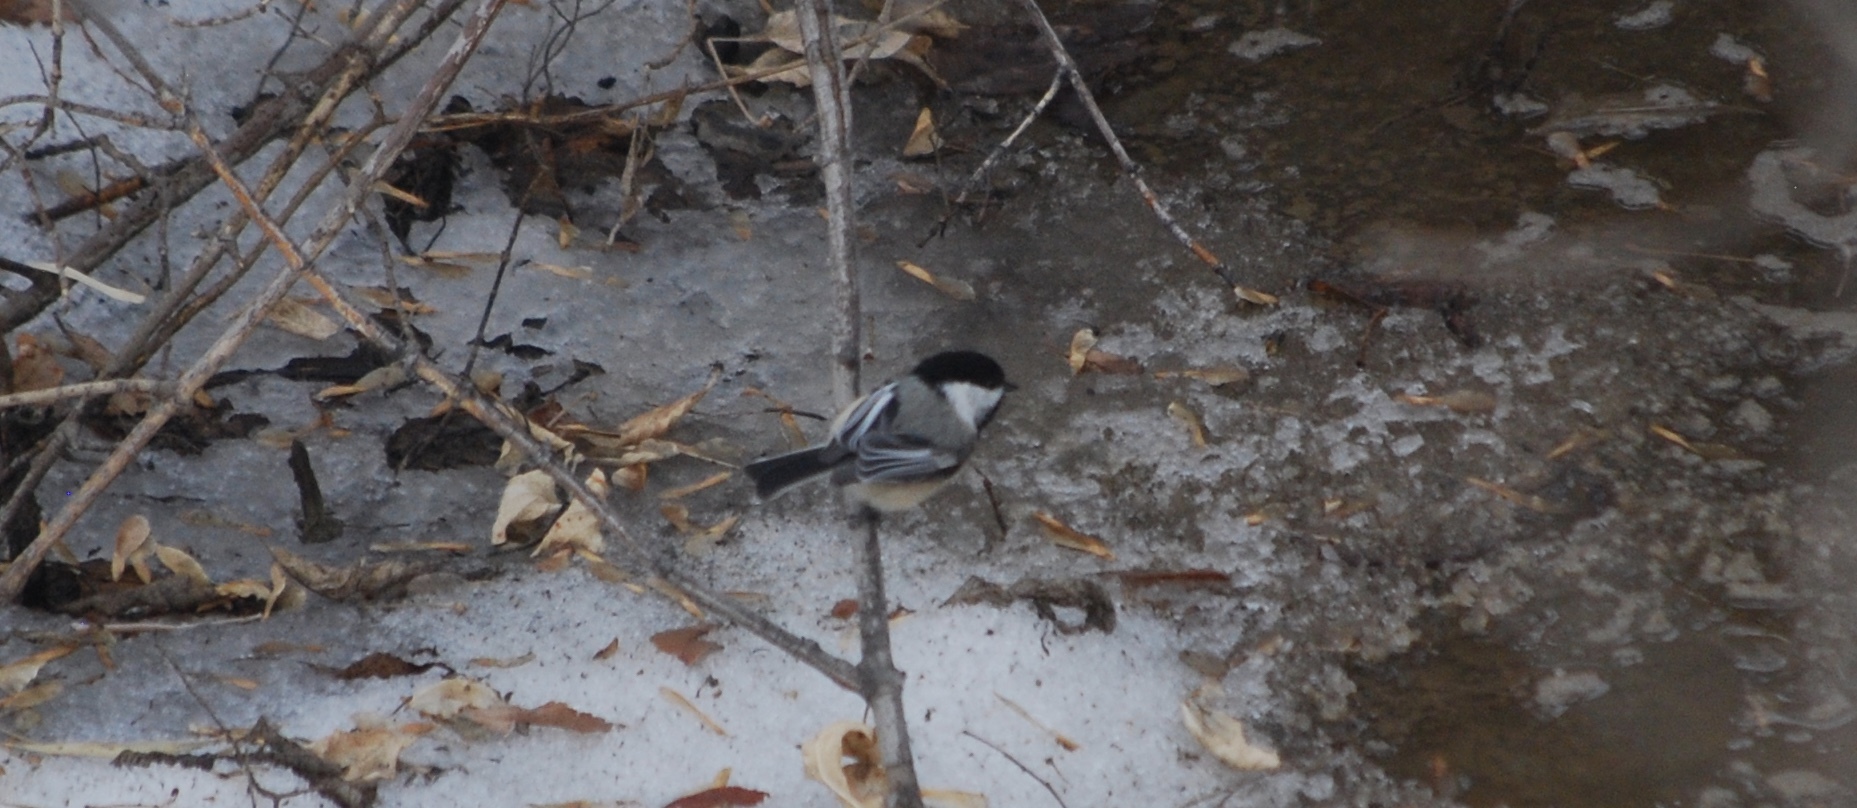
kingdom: Animalia
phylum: Chordata
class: Aves
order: Passeriformes
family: Paridae
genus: Poecile
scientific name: Poecile atricapillus
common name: Black-capped chickadee
